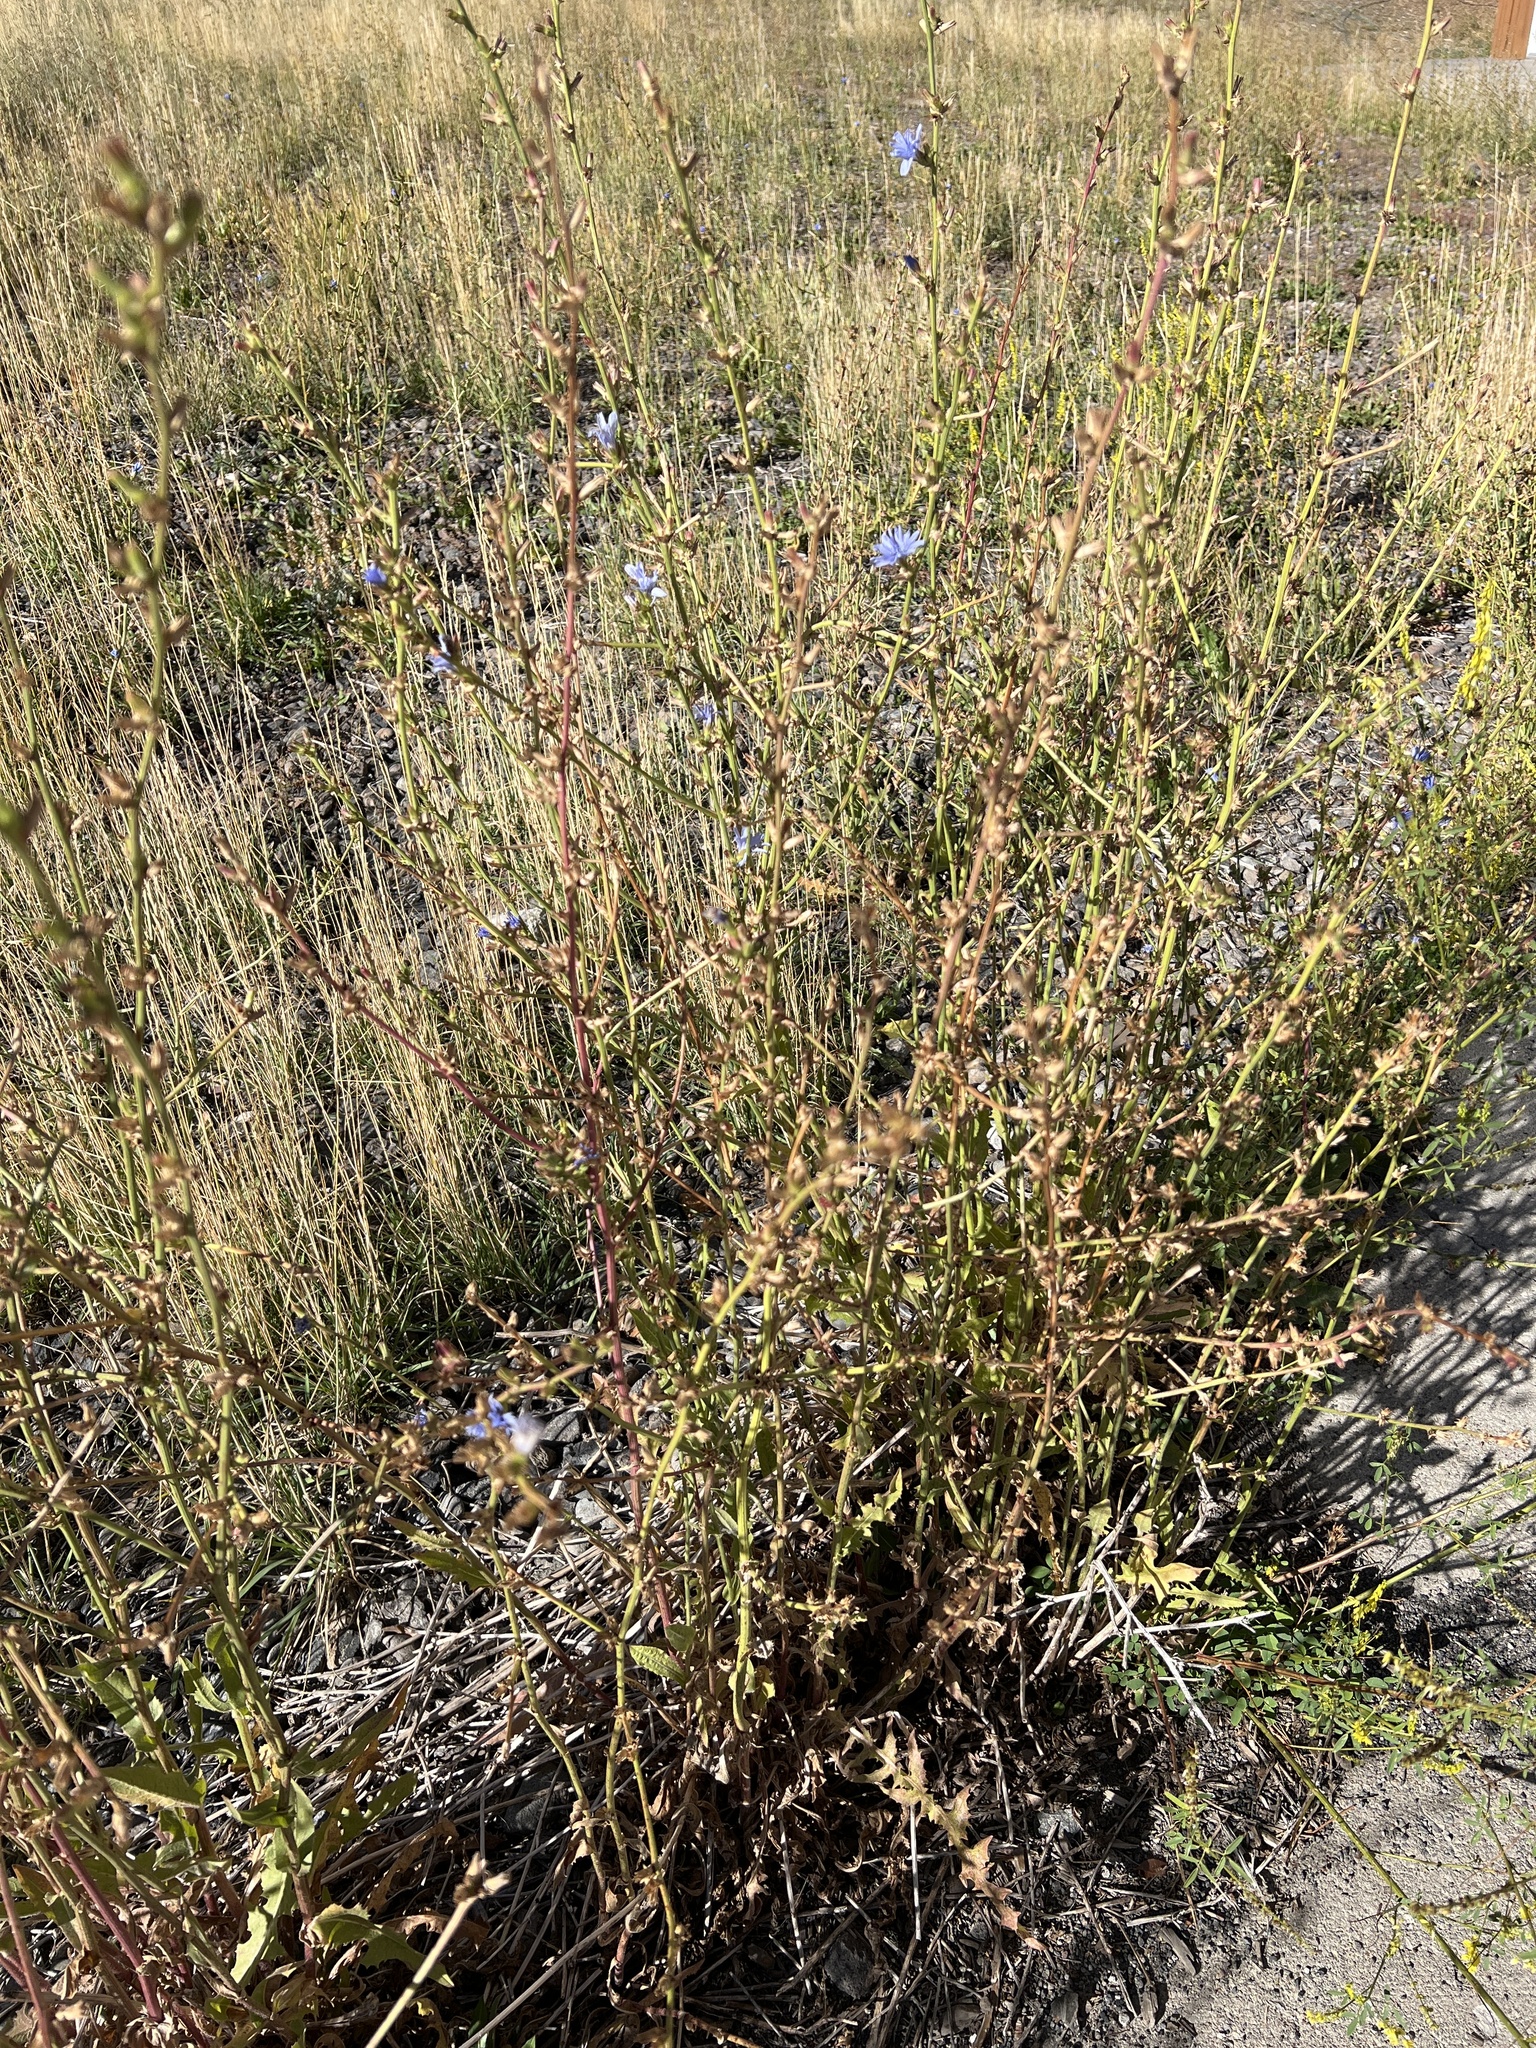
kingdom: Plantae
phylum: Tracheophyta
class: Magnoliopsida
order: Asterales
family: Asteraceae
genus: Cichorium
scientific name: Cichorium intybus
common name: Chicory
